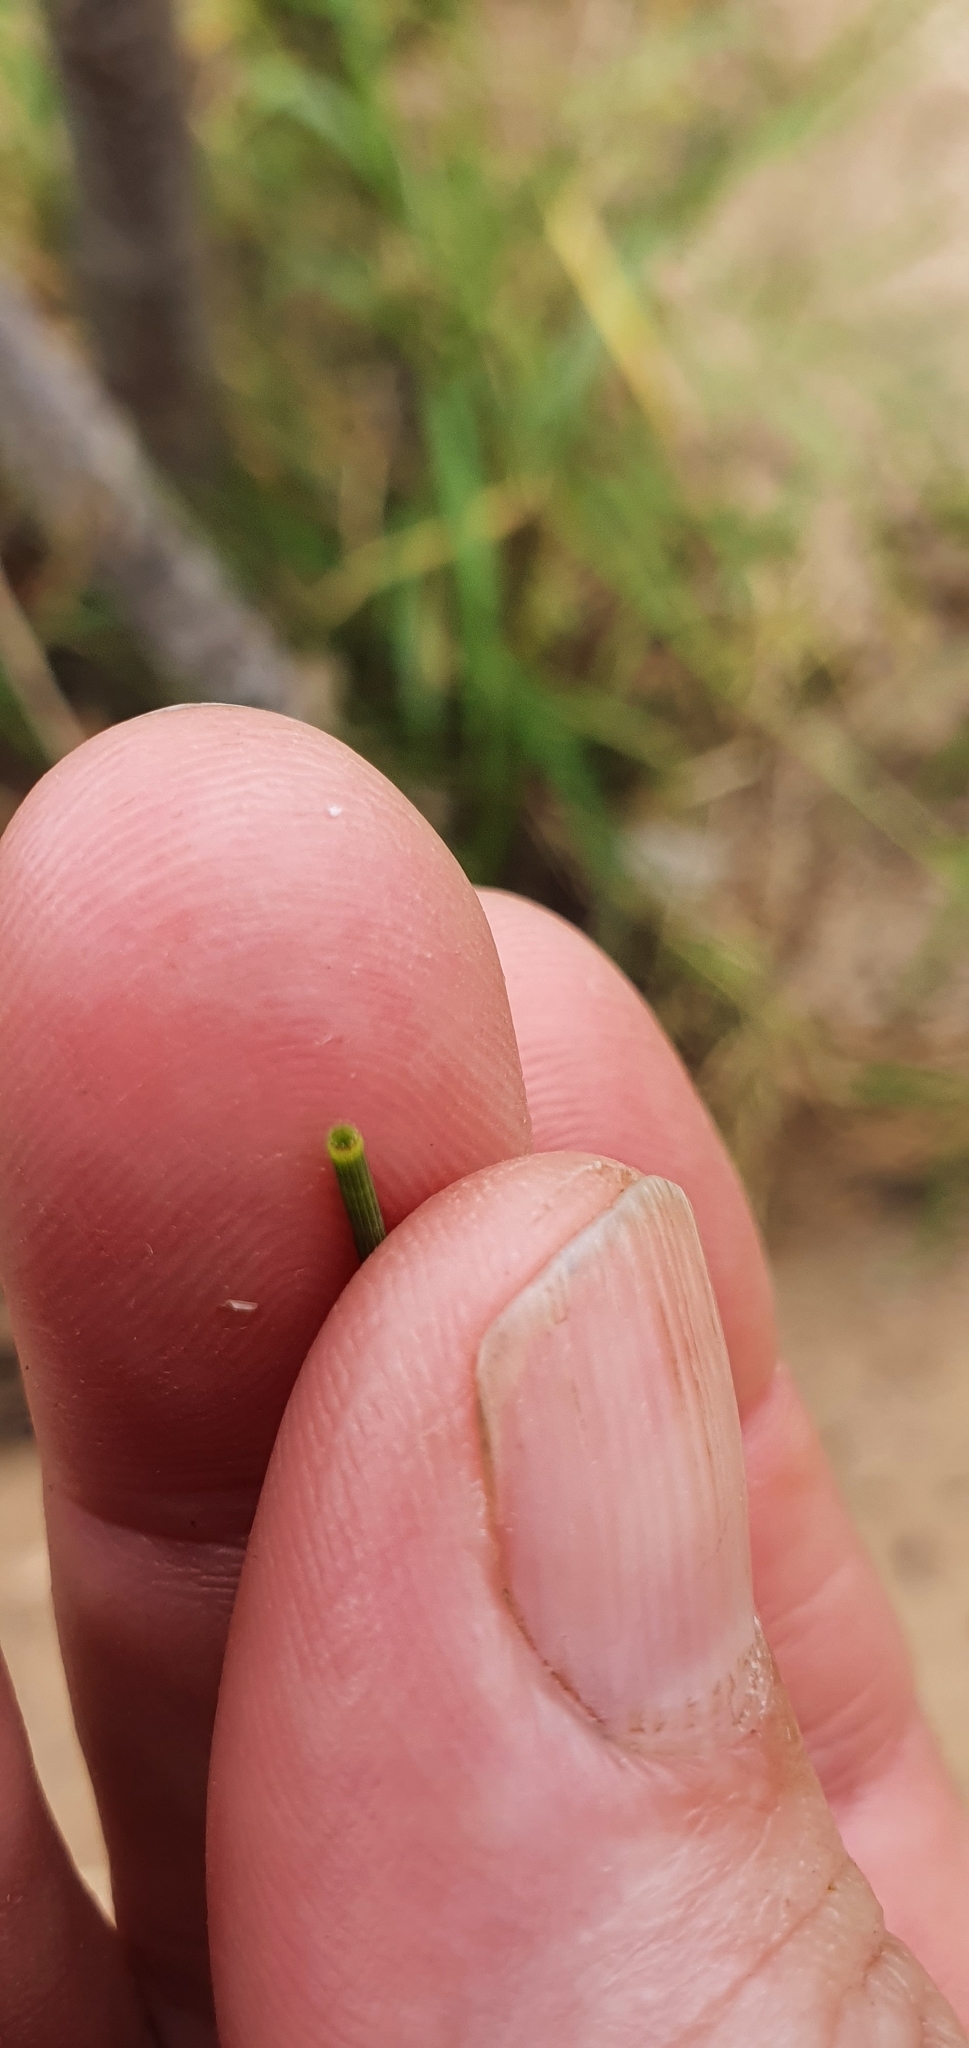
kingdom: Plantae
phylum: Tracheophyta
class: Magnoliopsida
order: Fagales
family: Casuarinaceae
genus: Casuarina
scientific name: Casuarina cunninghamiana
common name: River sheoak
